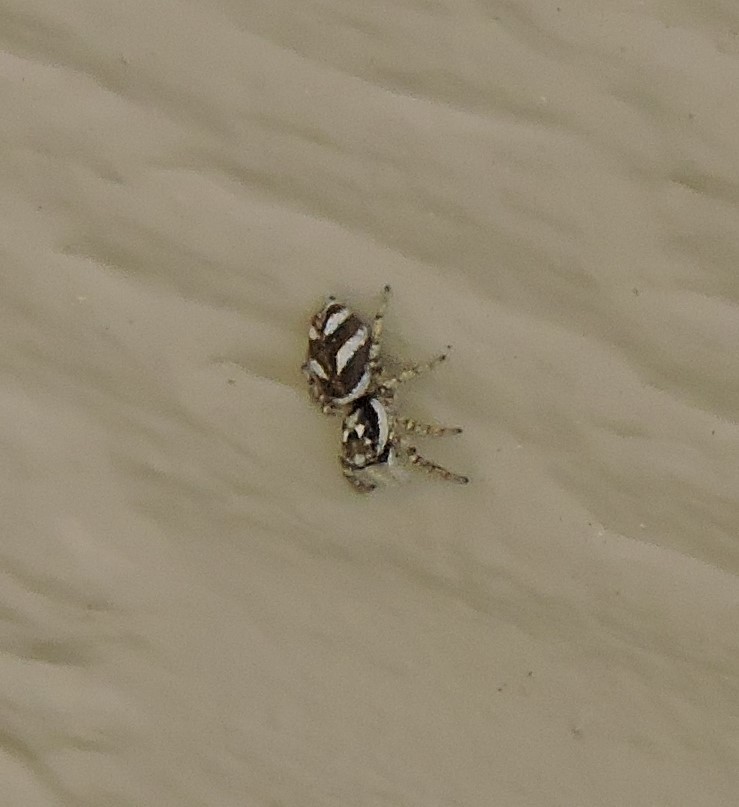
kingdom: Animalia
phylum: Arthropoda
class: Arachnida
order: Araneae
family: Salticidae
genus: Salticus
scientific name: Salticus scenicus
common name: Zebra jumper
